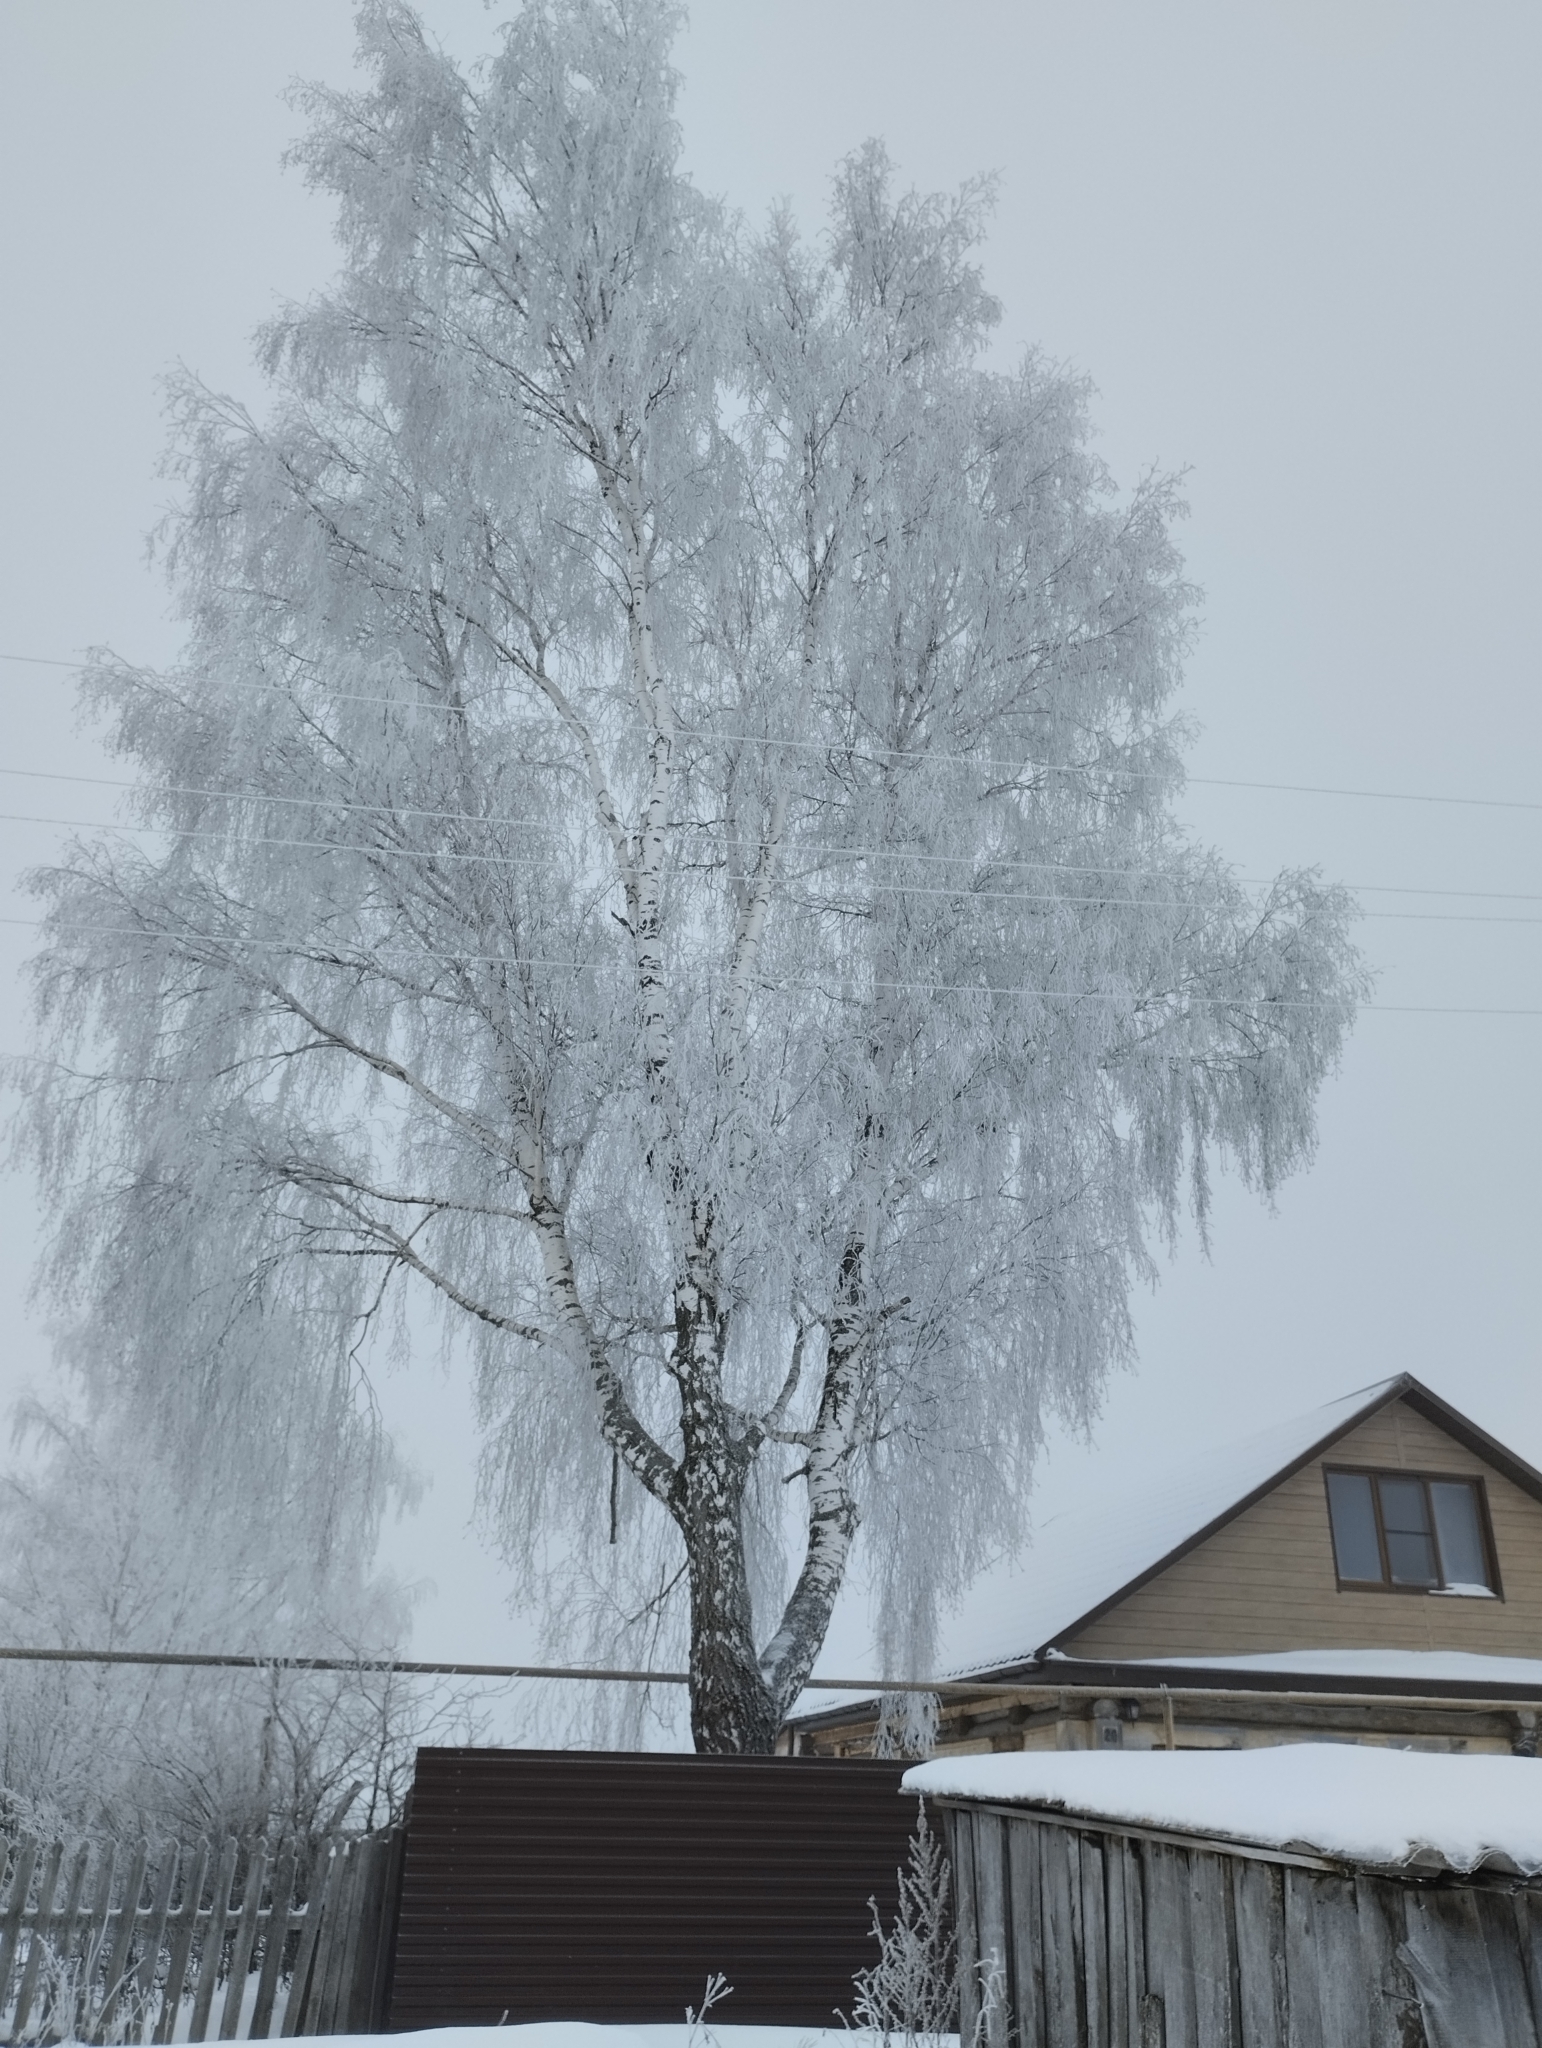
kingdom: Plantae
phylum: Tracheophyta
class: Magnoliopsida
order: Fagales
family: Betulaceae
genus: Betula
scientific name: Betula pendula
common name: Silver birch
